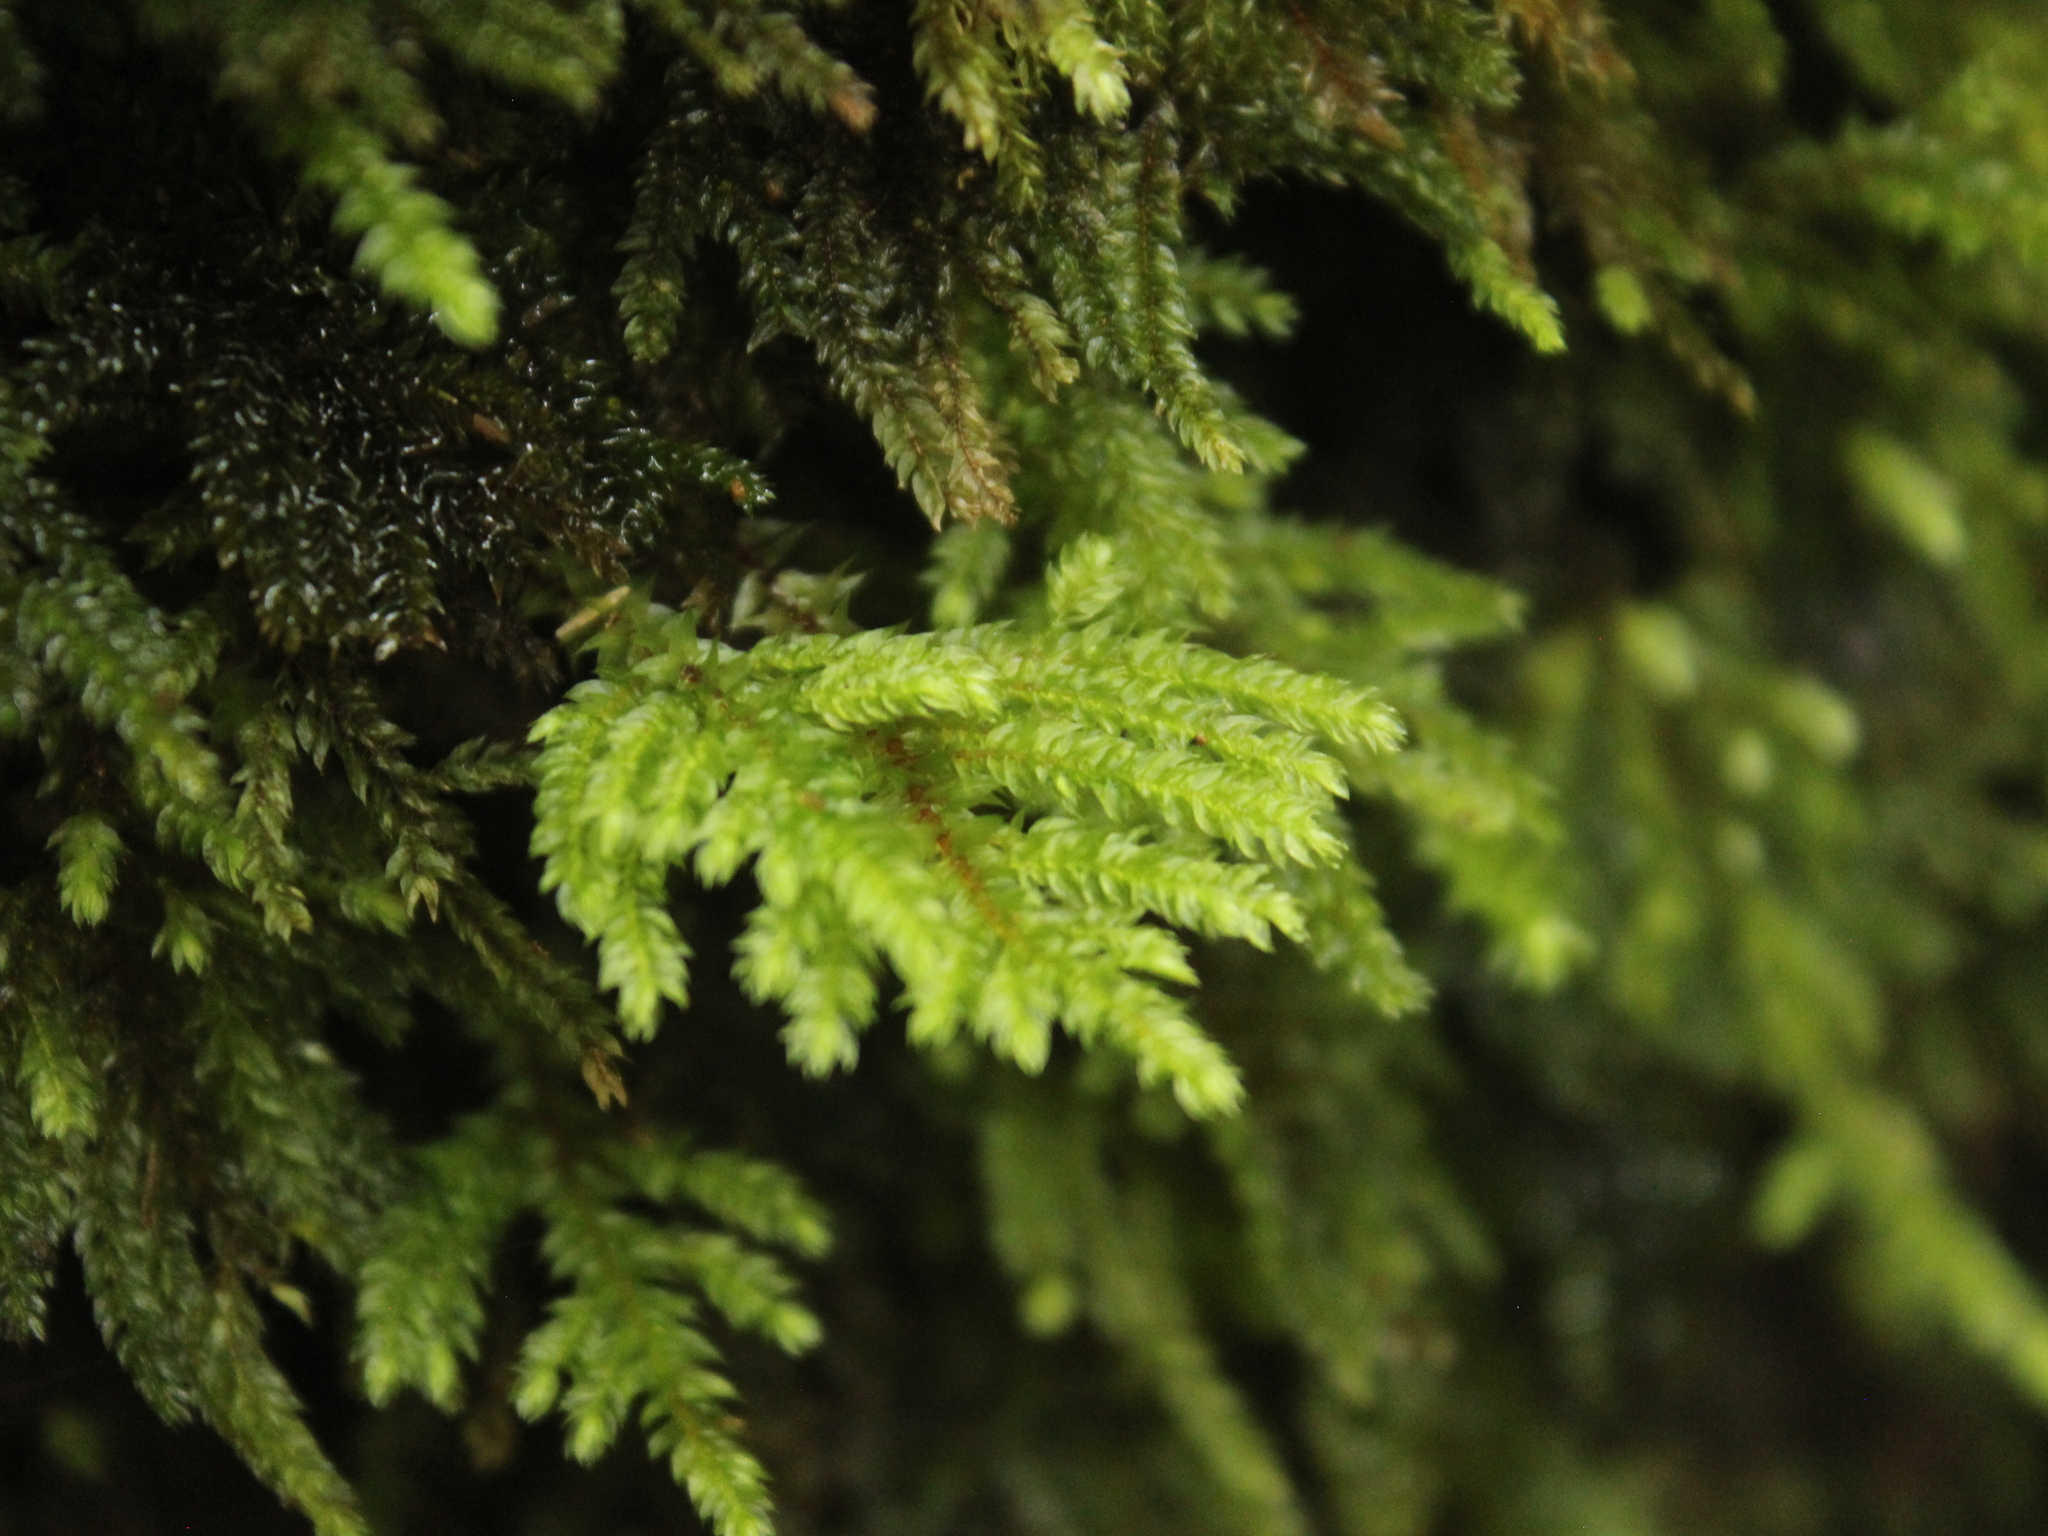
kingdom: Plantae
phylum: Bryophyta
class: Bryopsida
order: Hypnodendrales
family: Spiridentaceae
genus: Hypnodendron
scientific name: Hypnodendron arcuatum
